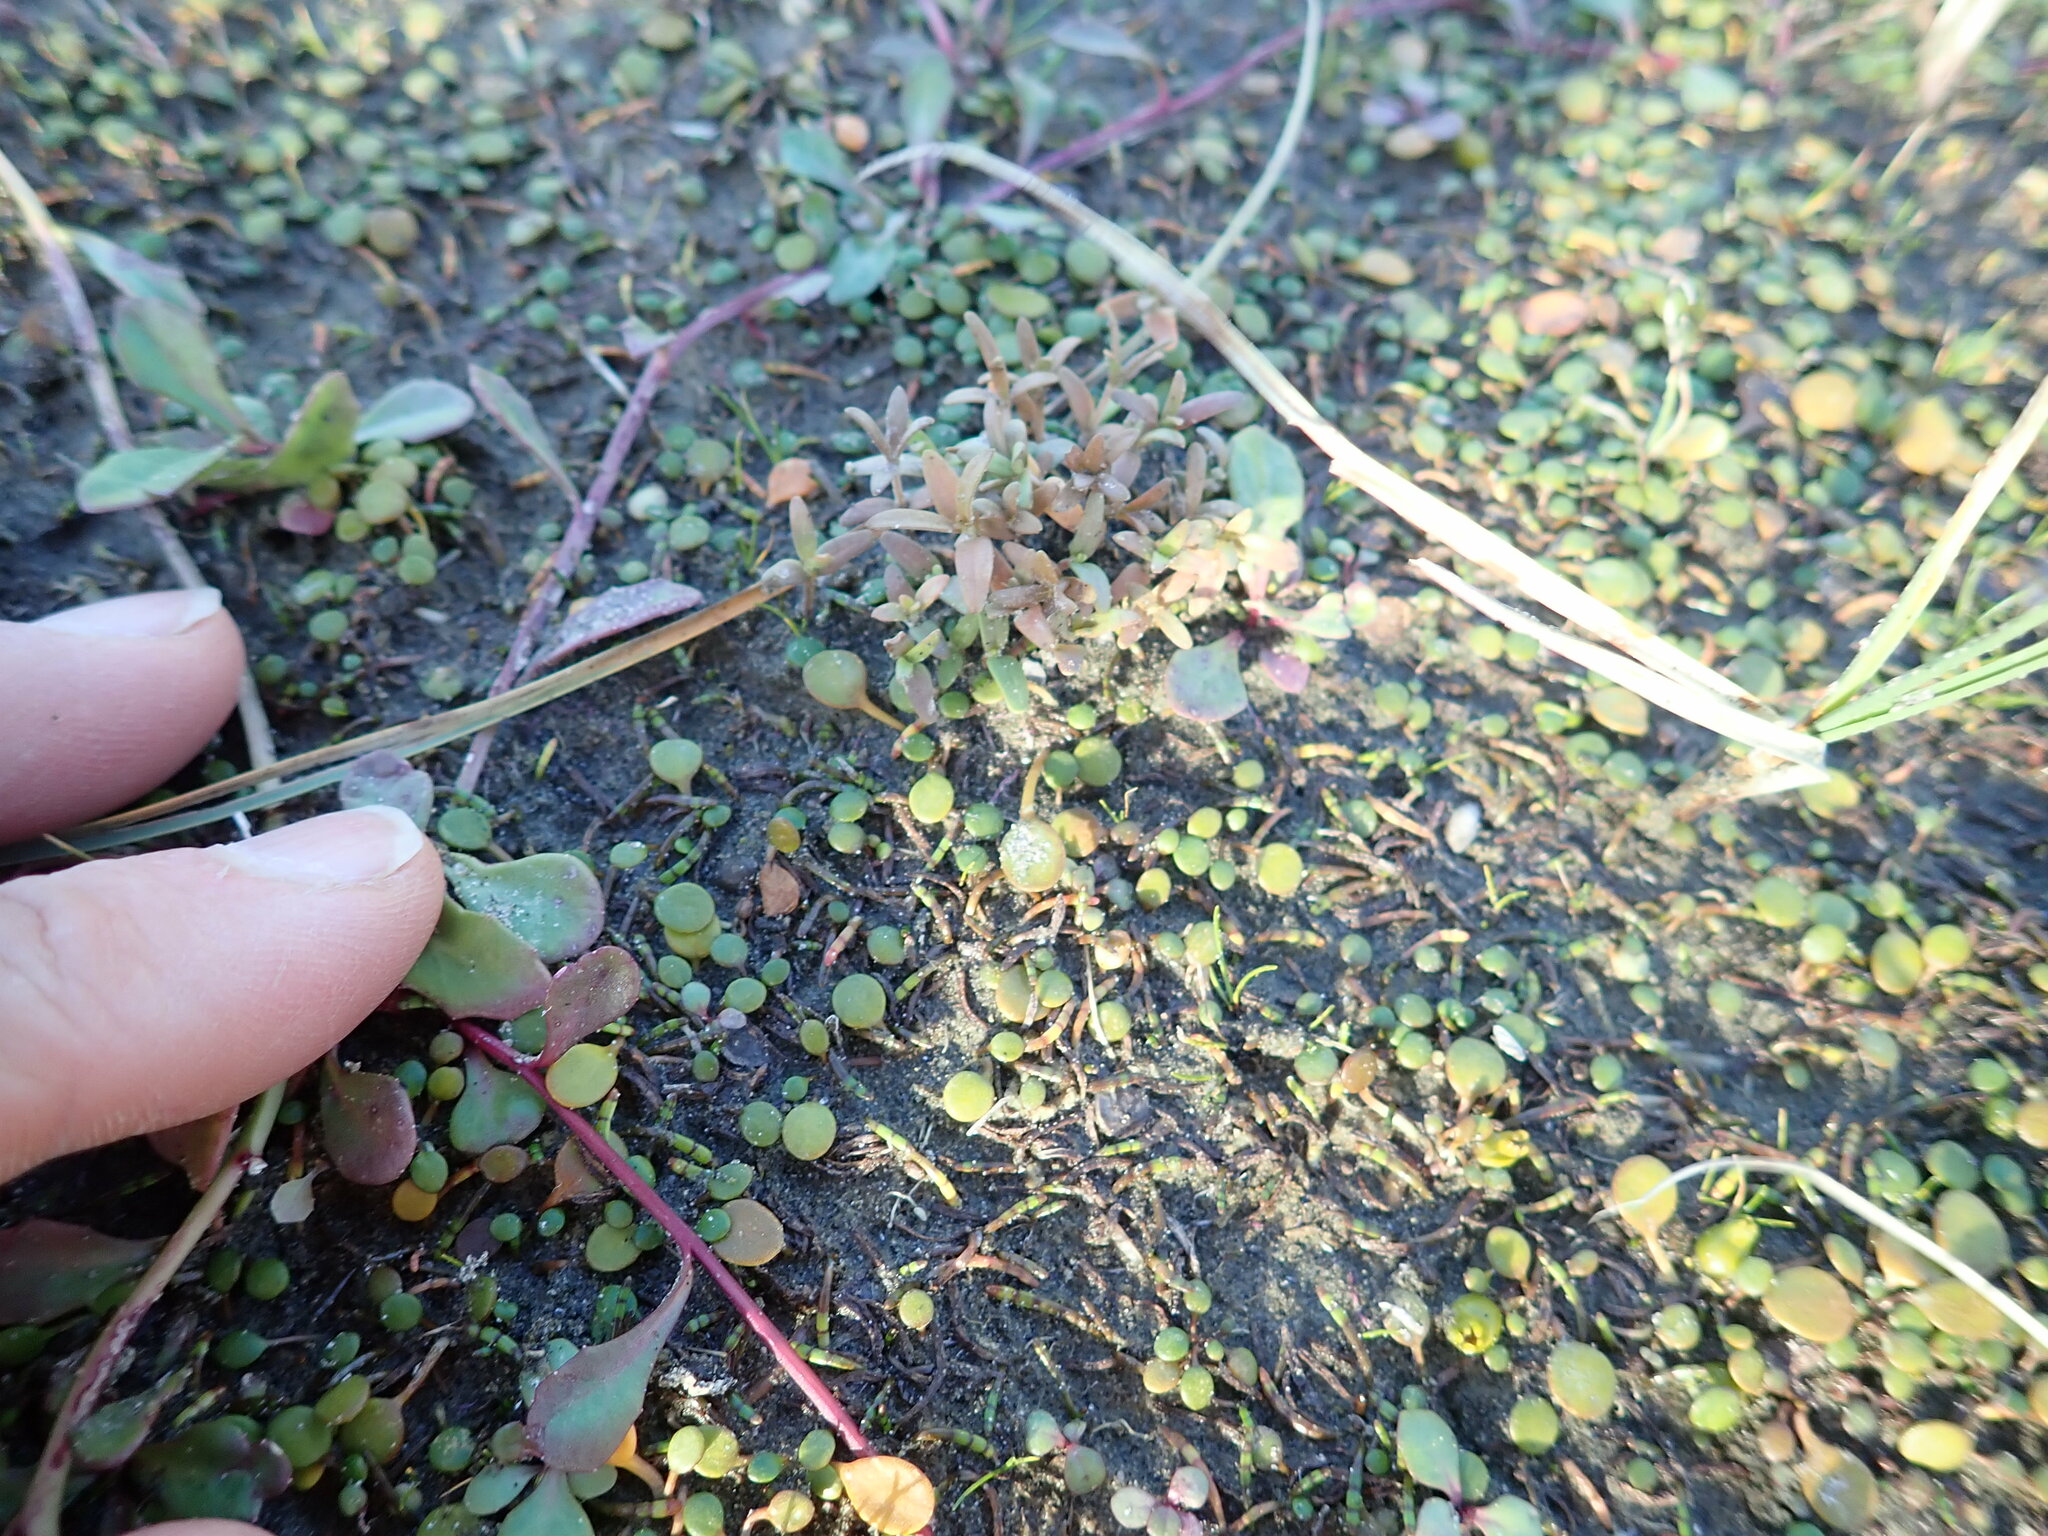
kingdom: Plantae
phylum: Tracheophyta
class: Magnoliopsida
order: Gentianales
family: Rubiaceae
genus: Coprosma
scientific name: Coprosma acerosa
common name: Sand coprosma
